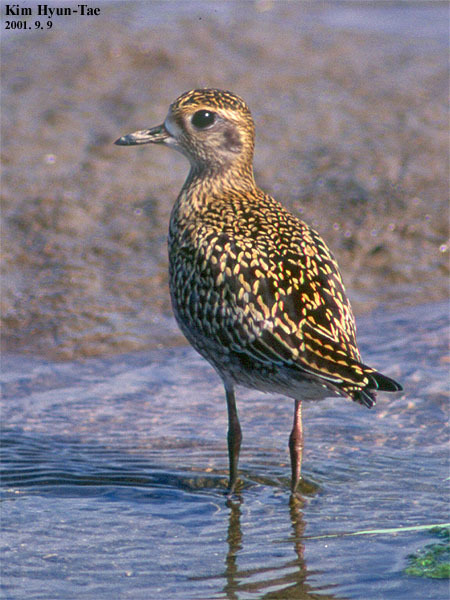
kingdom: Animalia
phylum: Chordata
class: Aves
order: Charadriiformes
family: Charadriidae
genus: Pluvialis
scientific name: Pluvialis fulva
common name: Pacific golden plover
